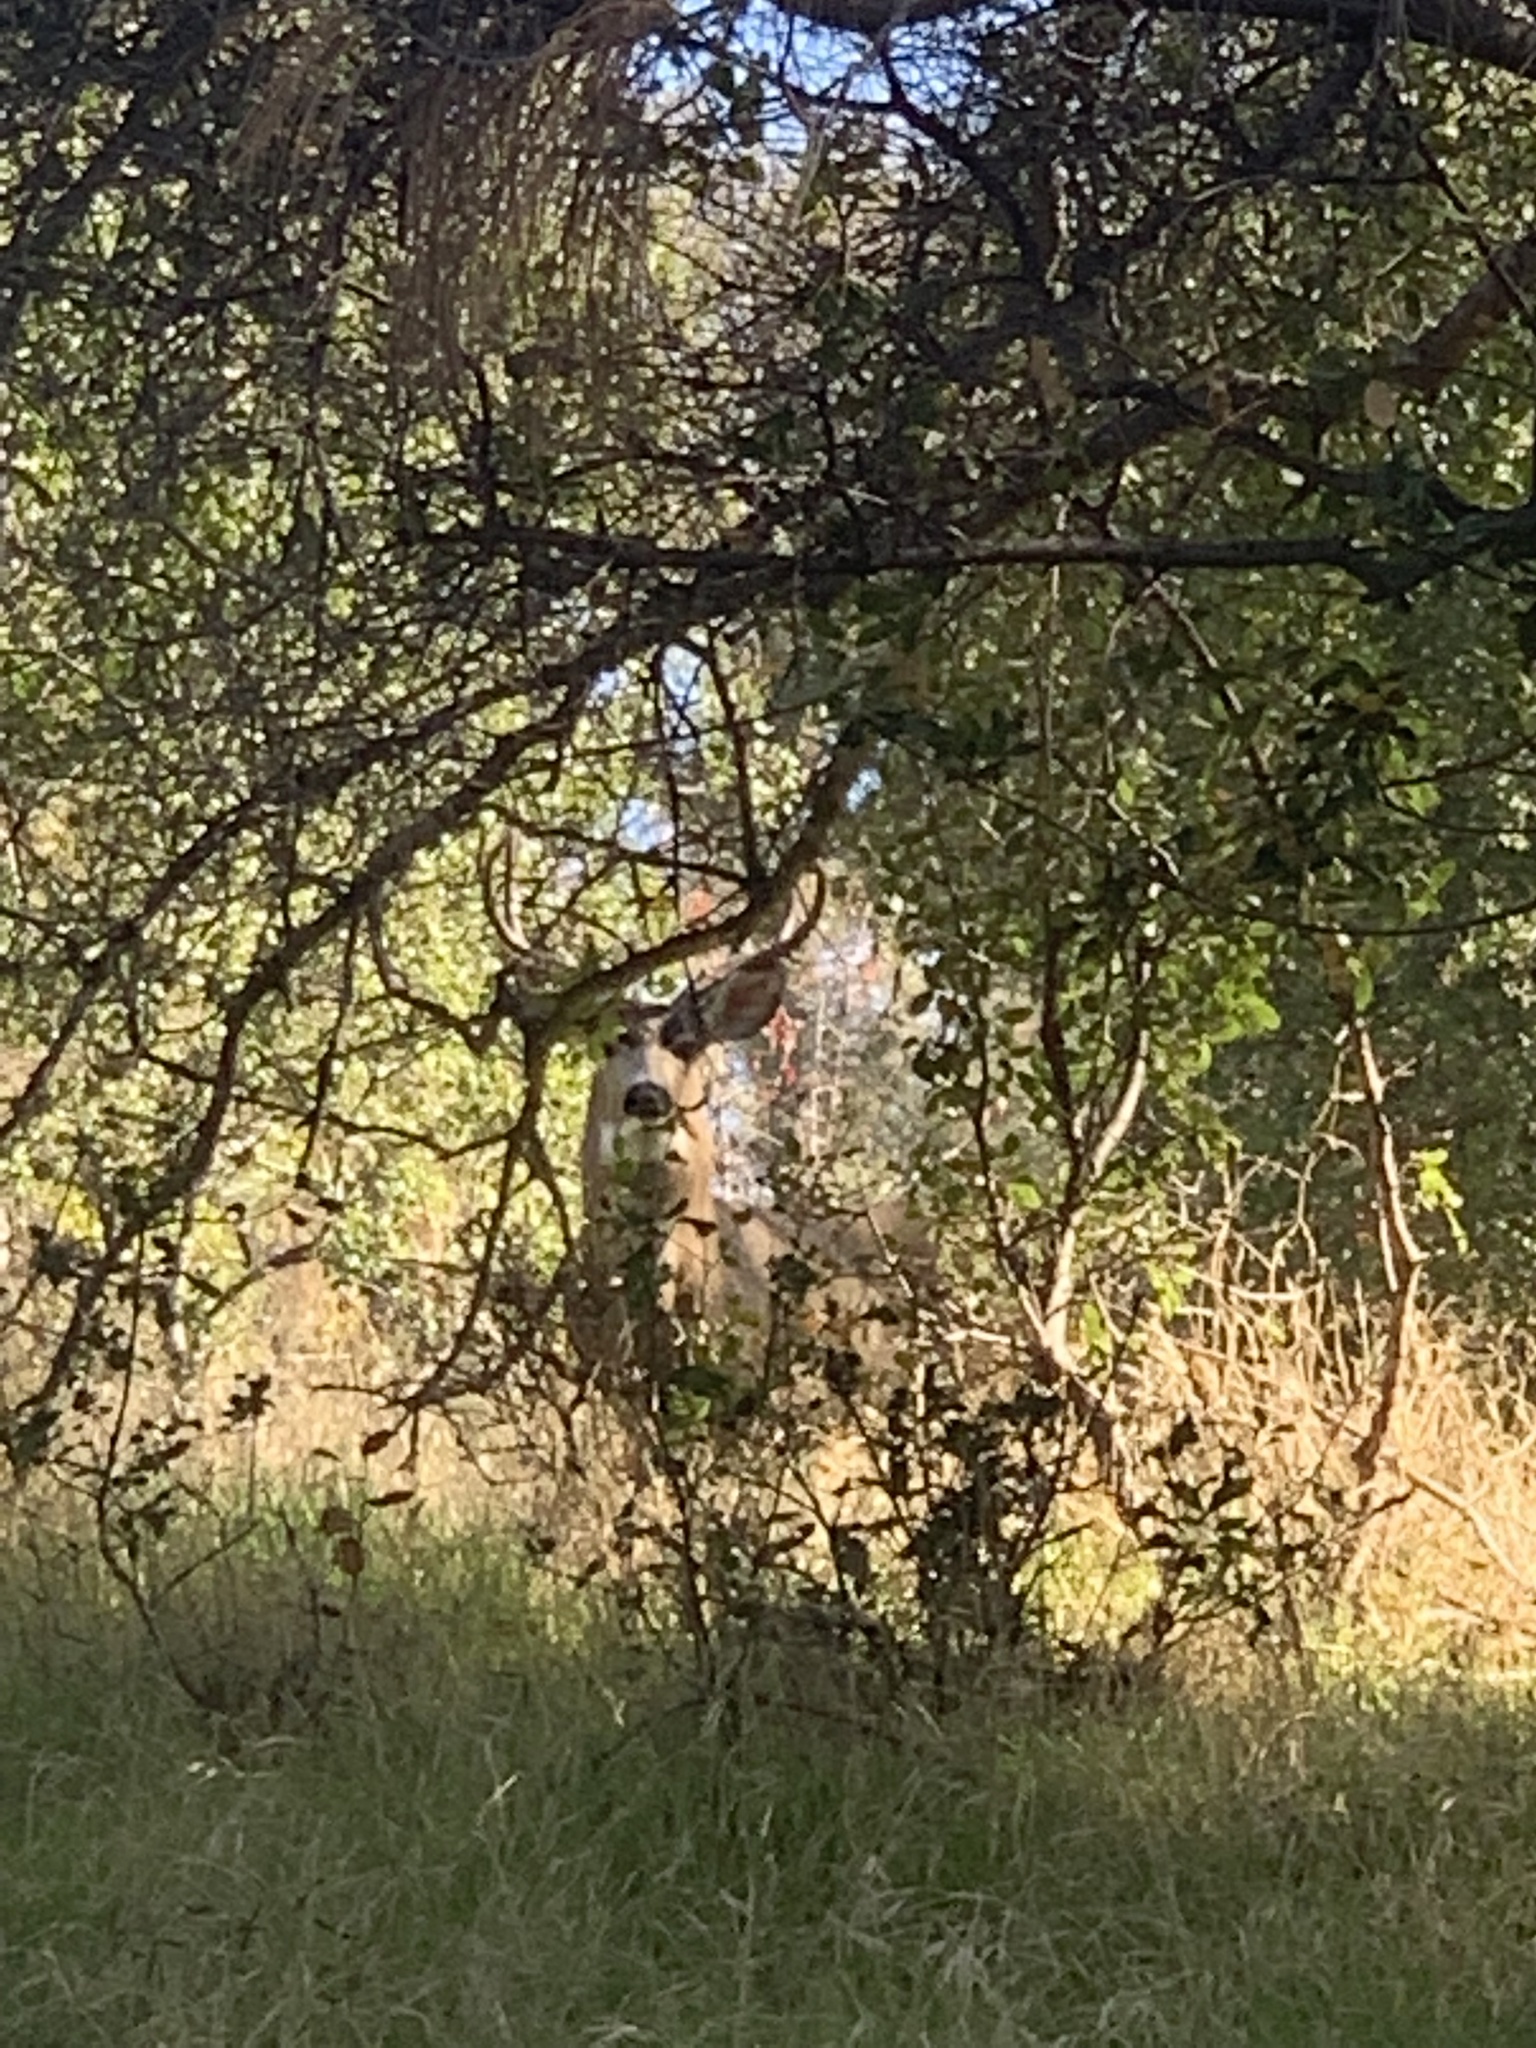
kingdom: Animalia
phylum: Chordata
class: Mammalia
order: Artiodactyla
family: Cervidae
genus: Odocoileus
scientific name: Odocoileus hemionus
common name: Mule deer
